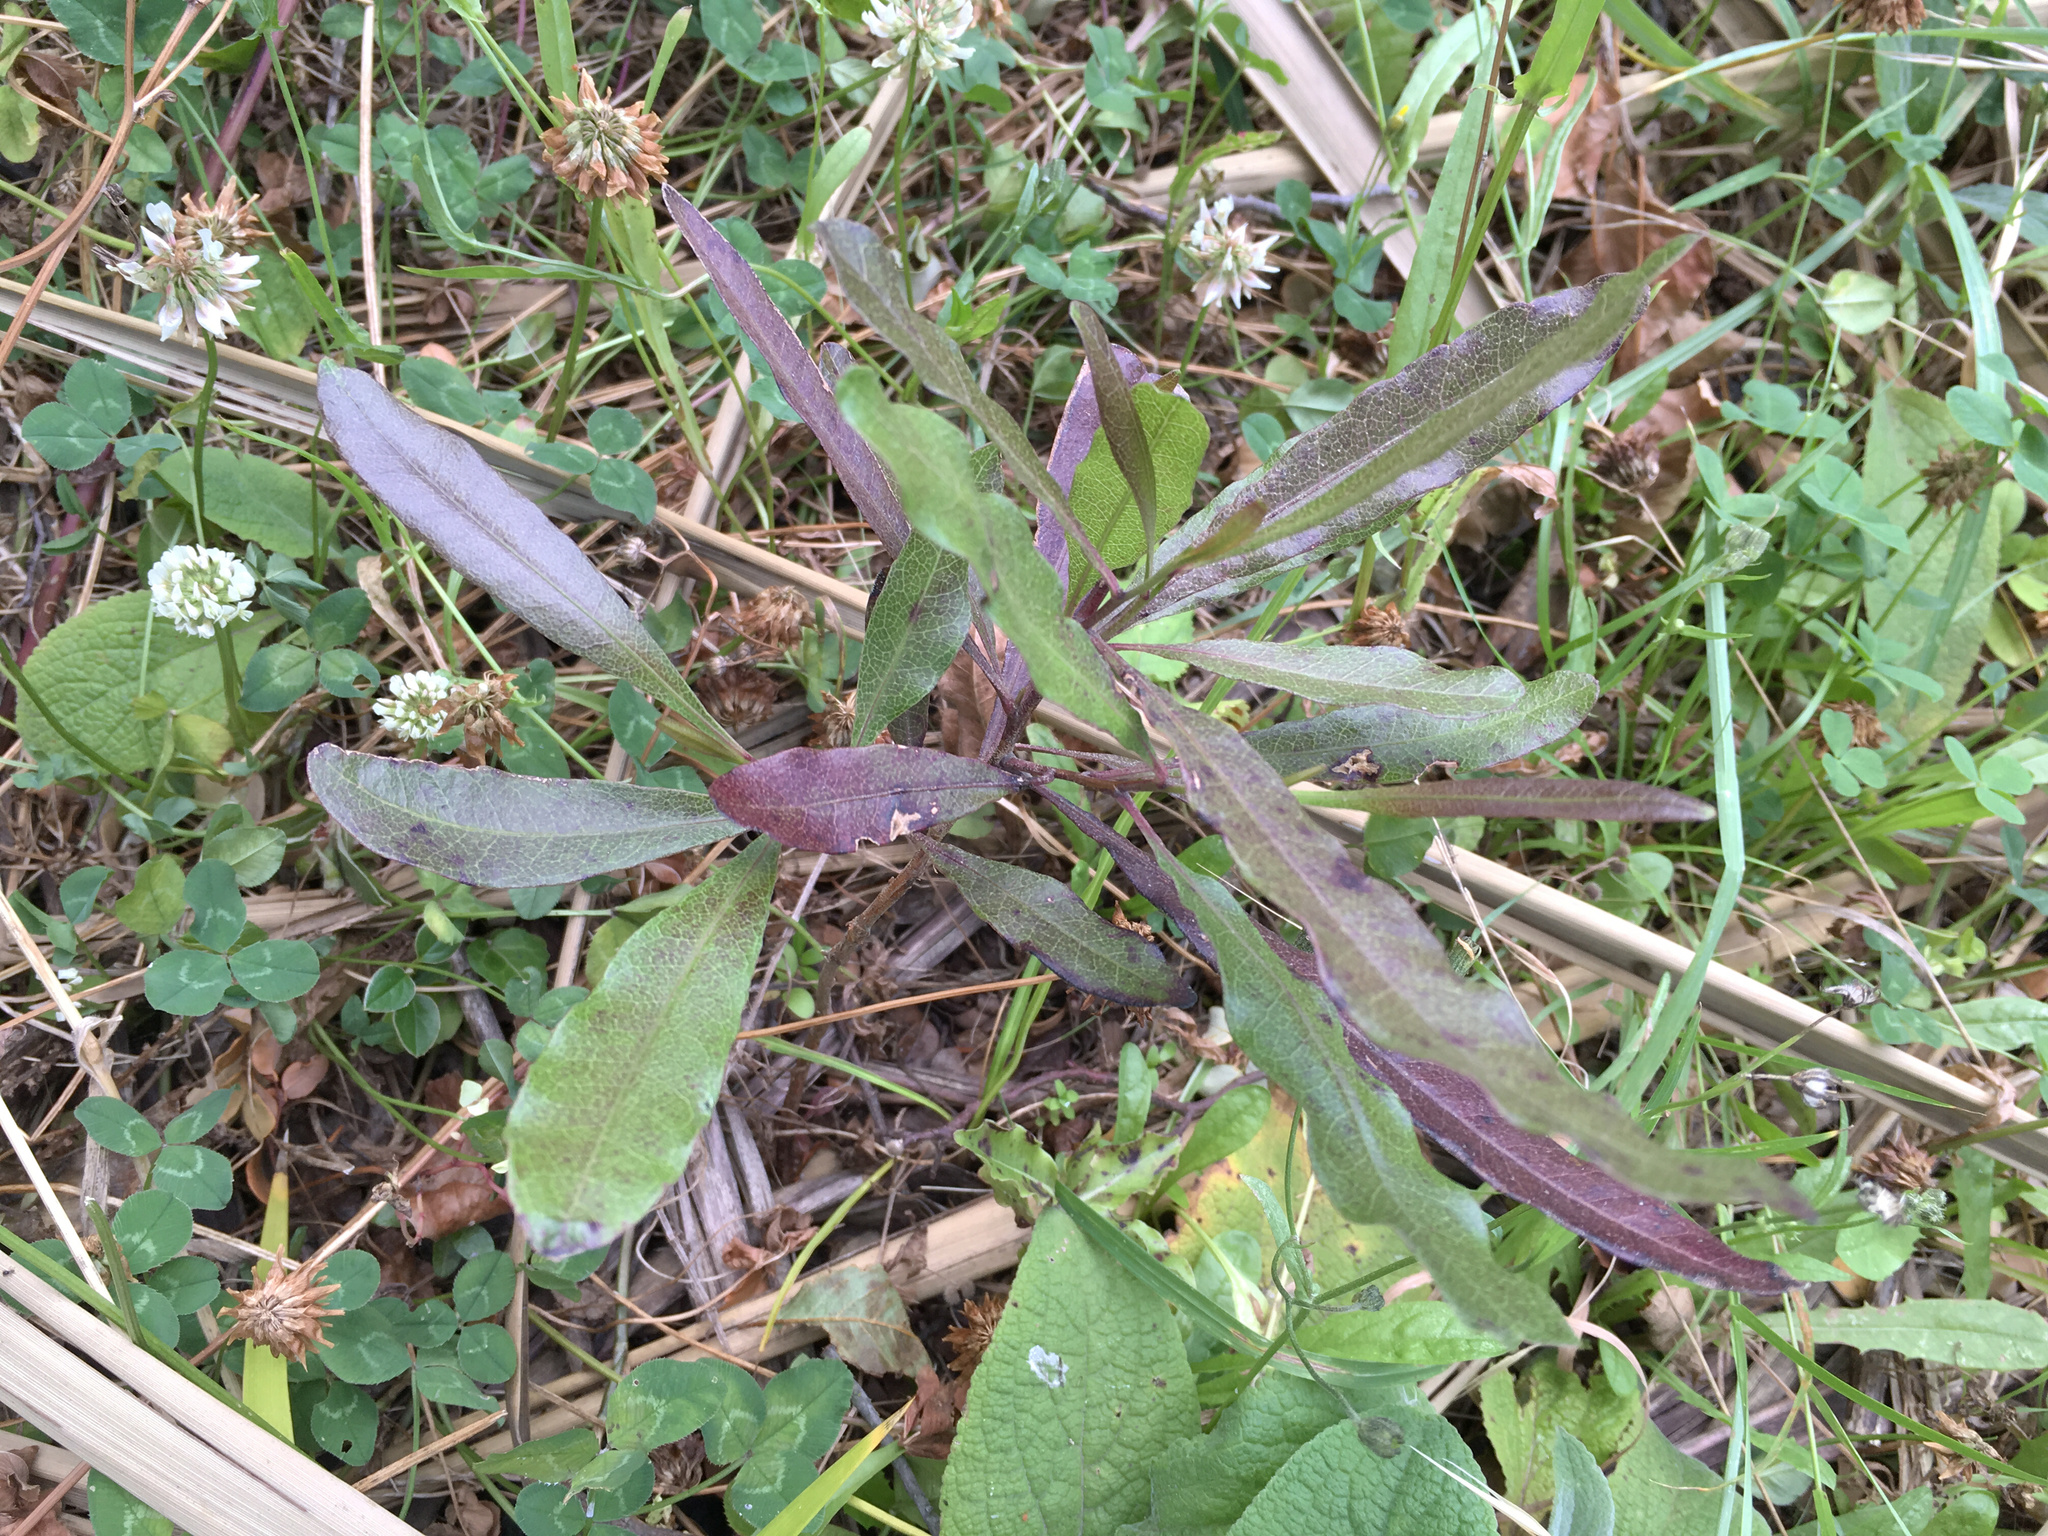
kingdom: Plantae
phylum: Tracheophyta
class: Magnoliopsida
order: Sapindales
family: Sapindaceae
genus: Dodonaea
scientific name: Dodonaea viscosa
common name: Hopbush
